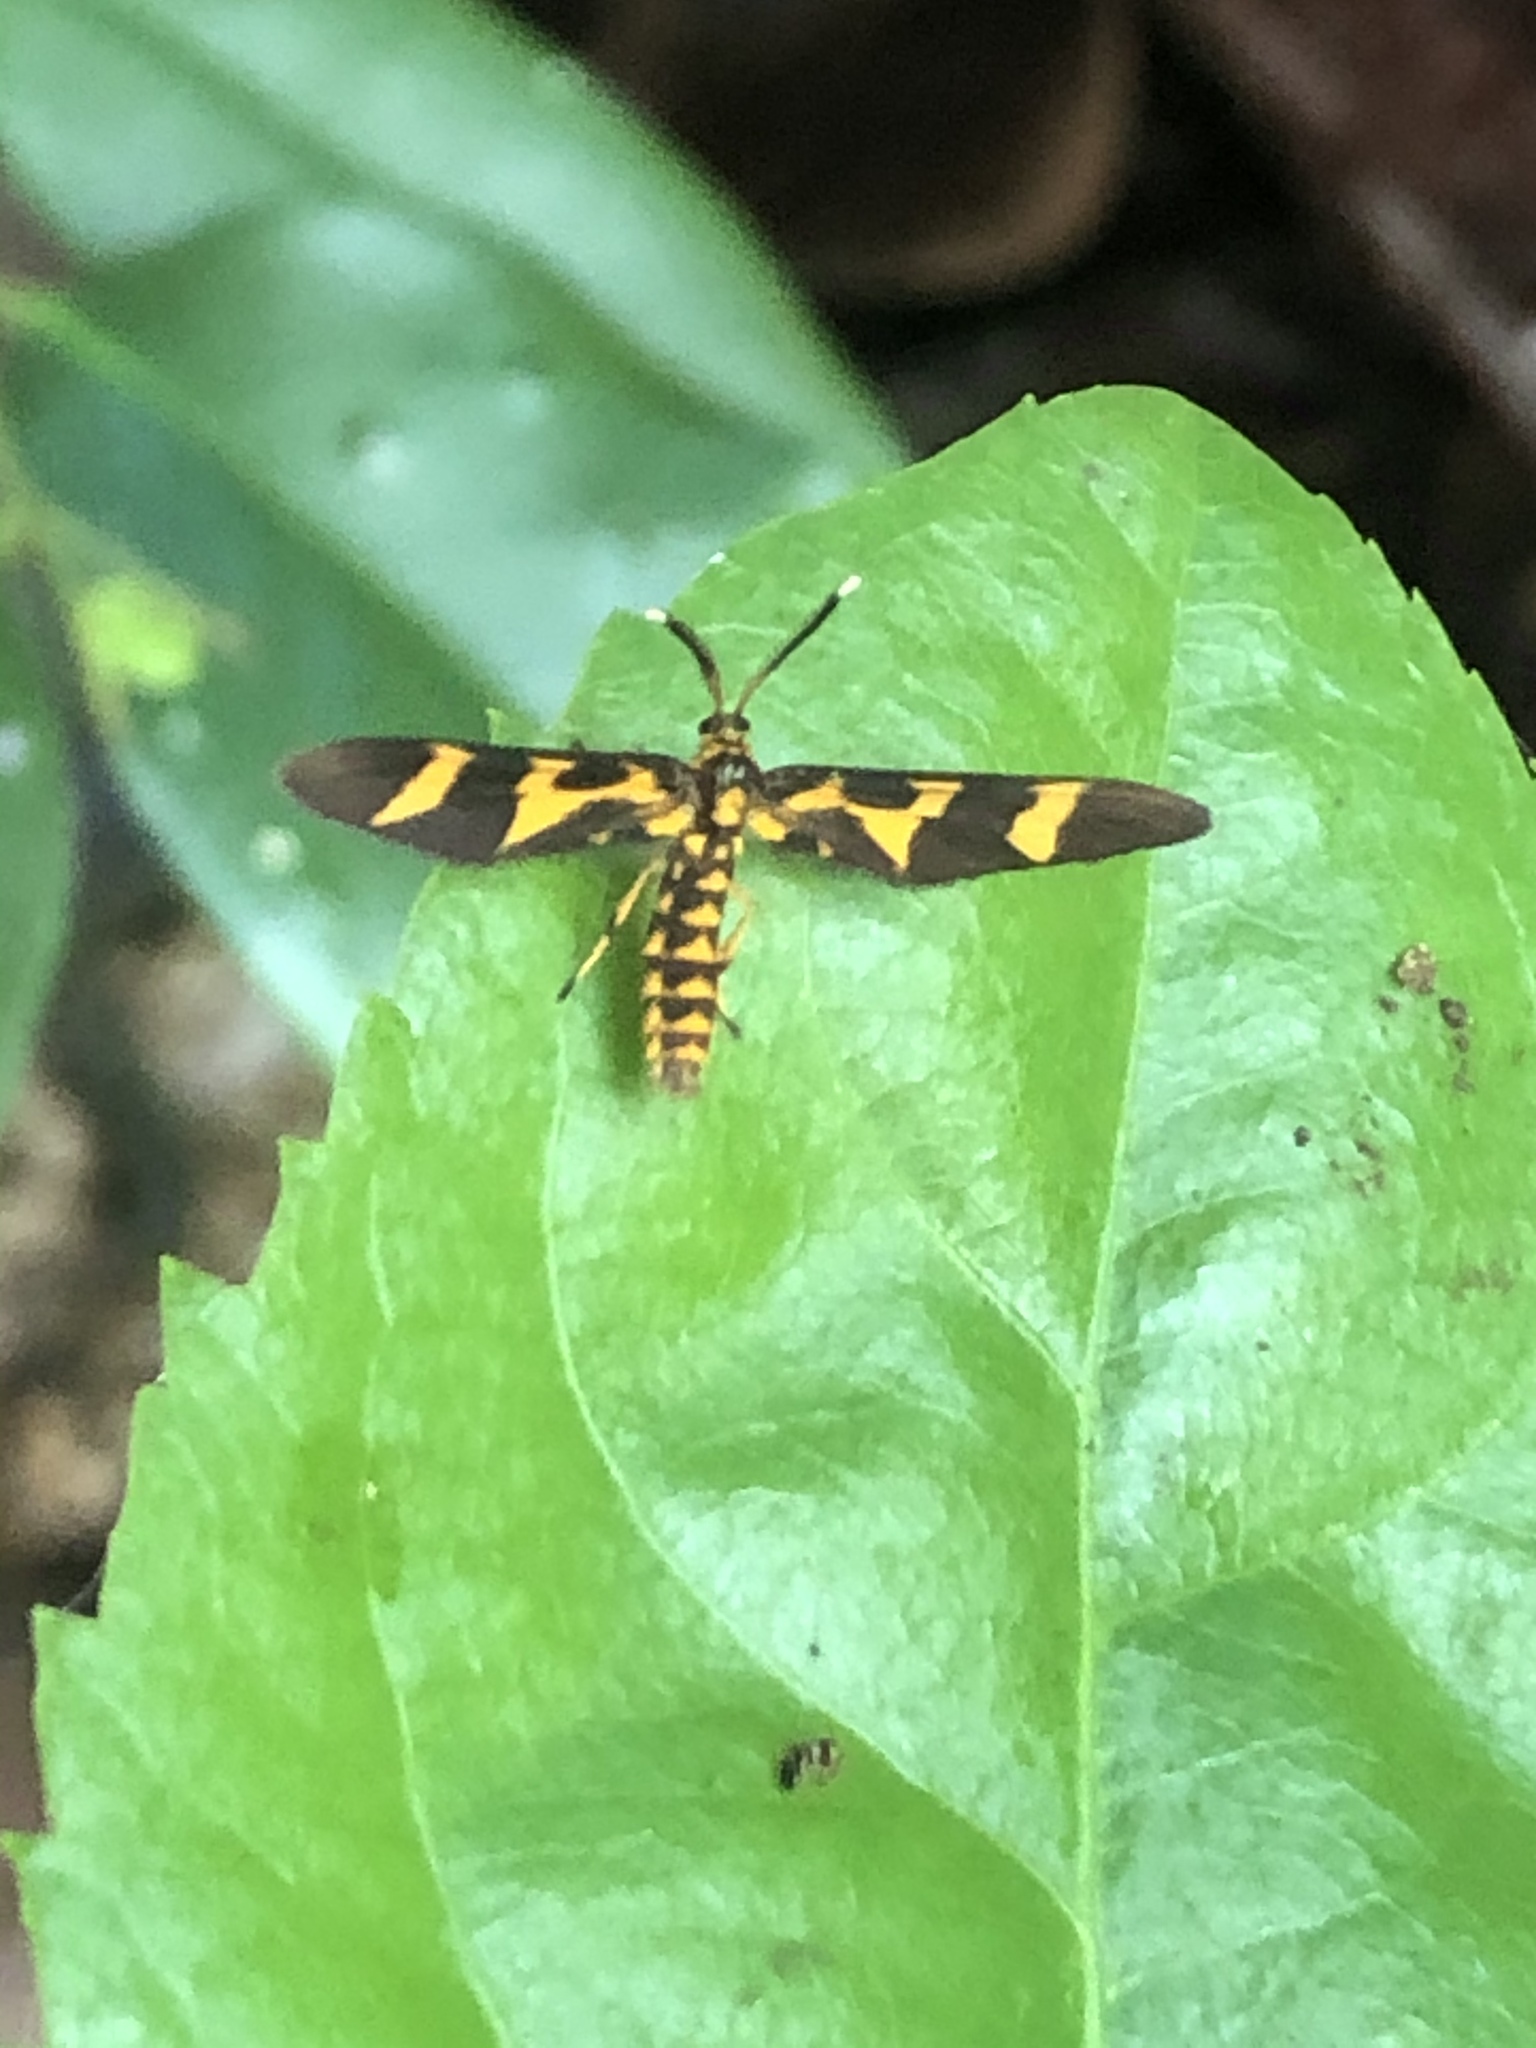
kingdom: Animalia
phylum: Arthropoda
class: Insecta
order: Lepidoptera
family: Erebidae
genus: Pseudonaclia
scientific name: Pseudonaclia bifasciata
